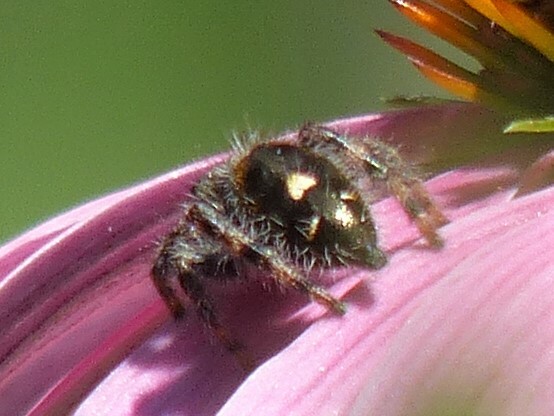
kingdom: Animalia
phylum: Arthropoda
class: Arachnida
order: Araneae
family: Salticidae
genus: Phidippus
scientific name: Phidippus audax
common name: Bold jumper
